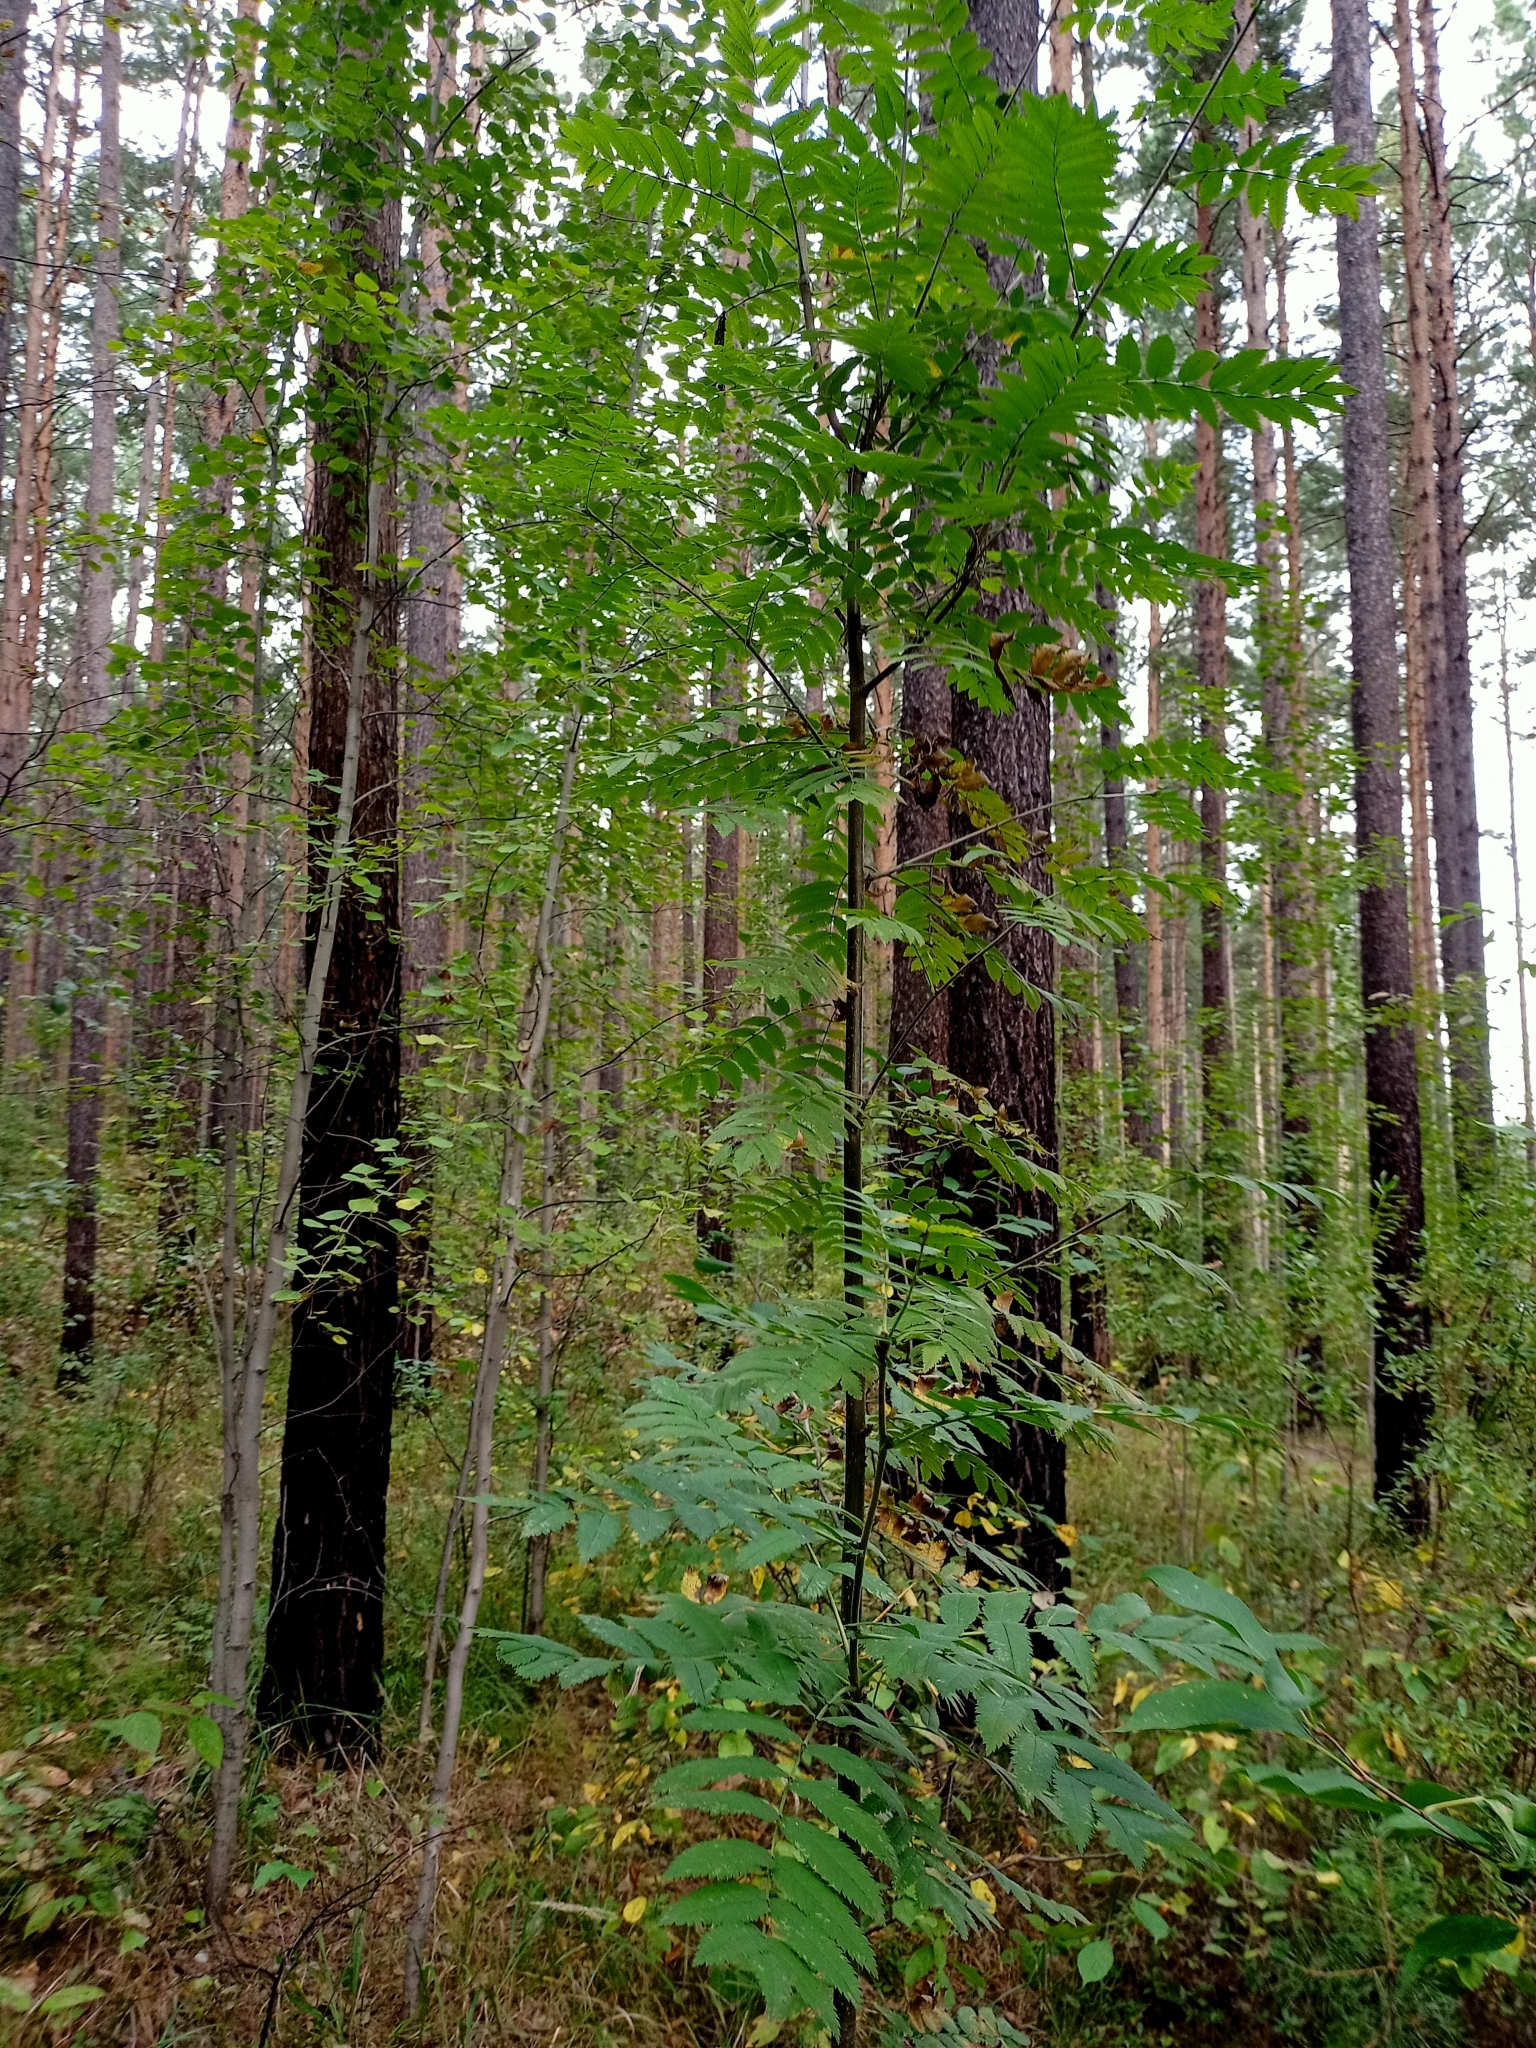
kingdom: Plantae
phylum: Tracheophyta
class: Magnoliopsida
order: Rosales
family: Rosaceae
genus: Sorbus
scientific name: Sorbus aucuparia
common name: Rowan
